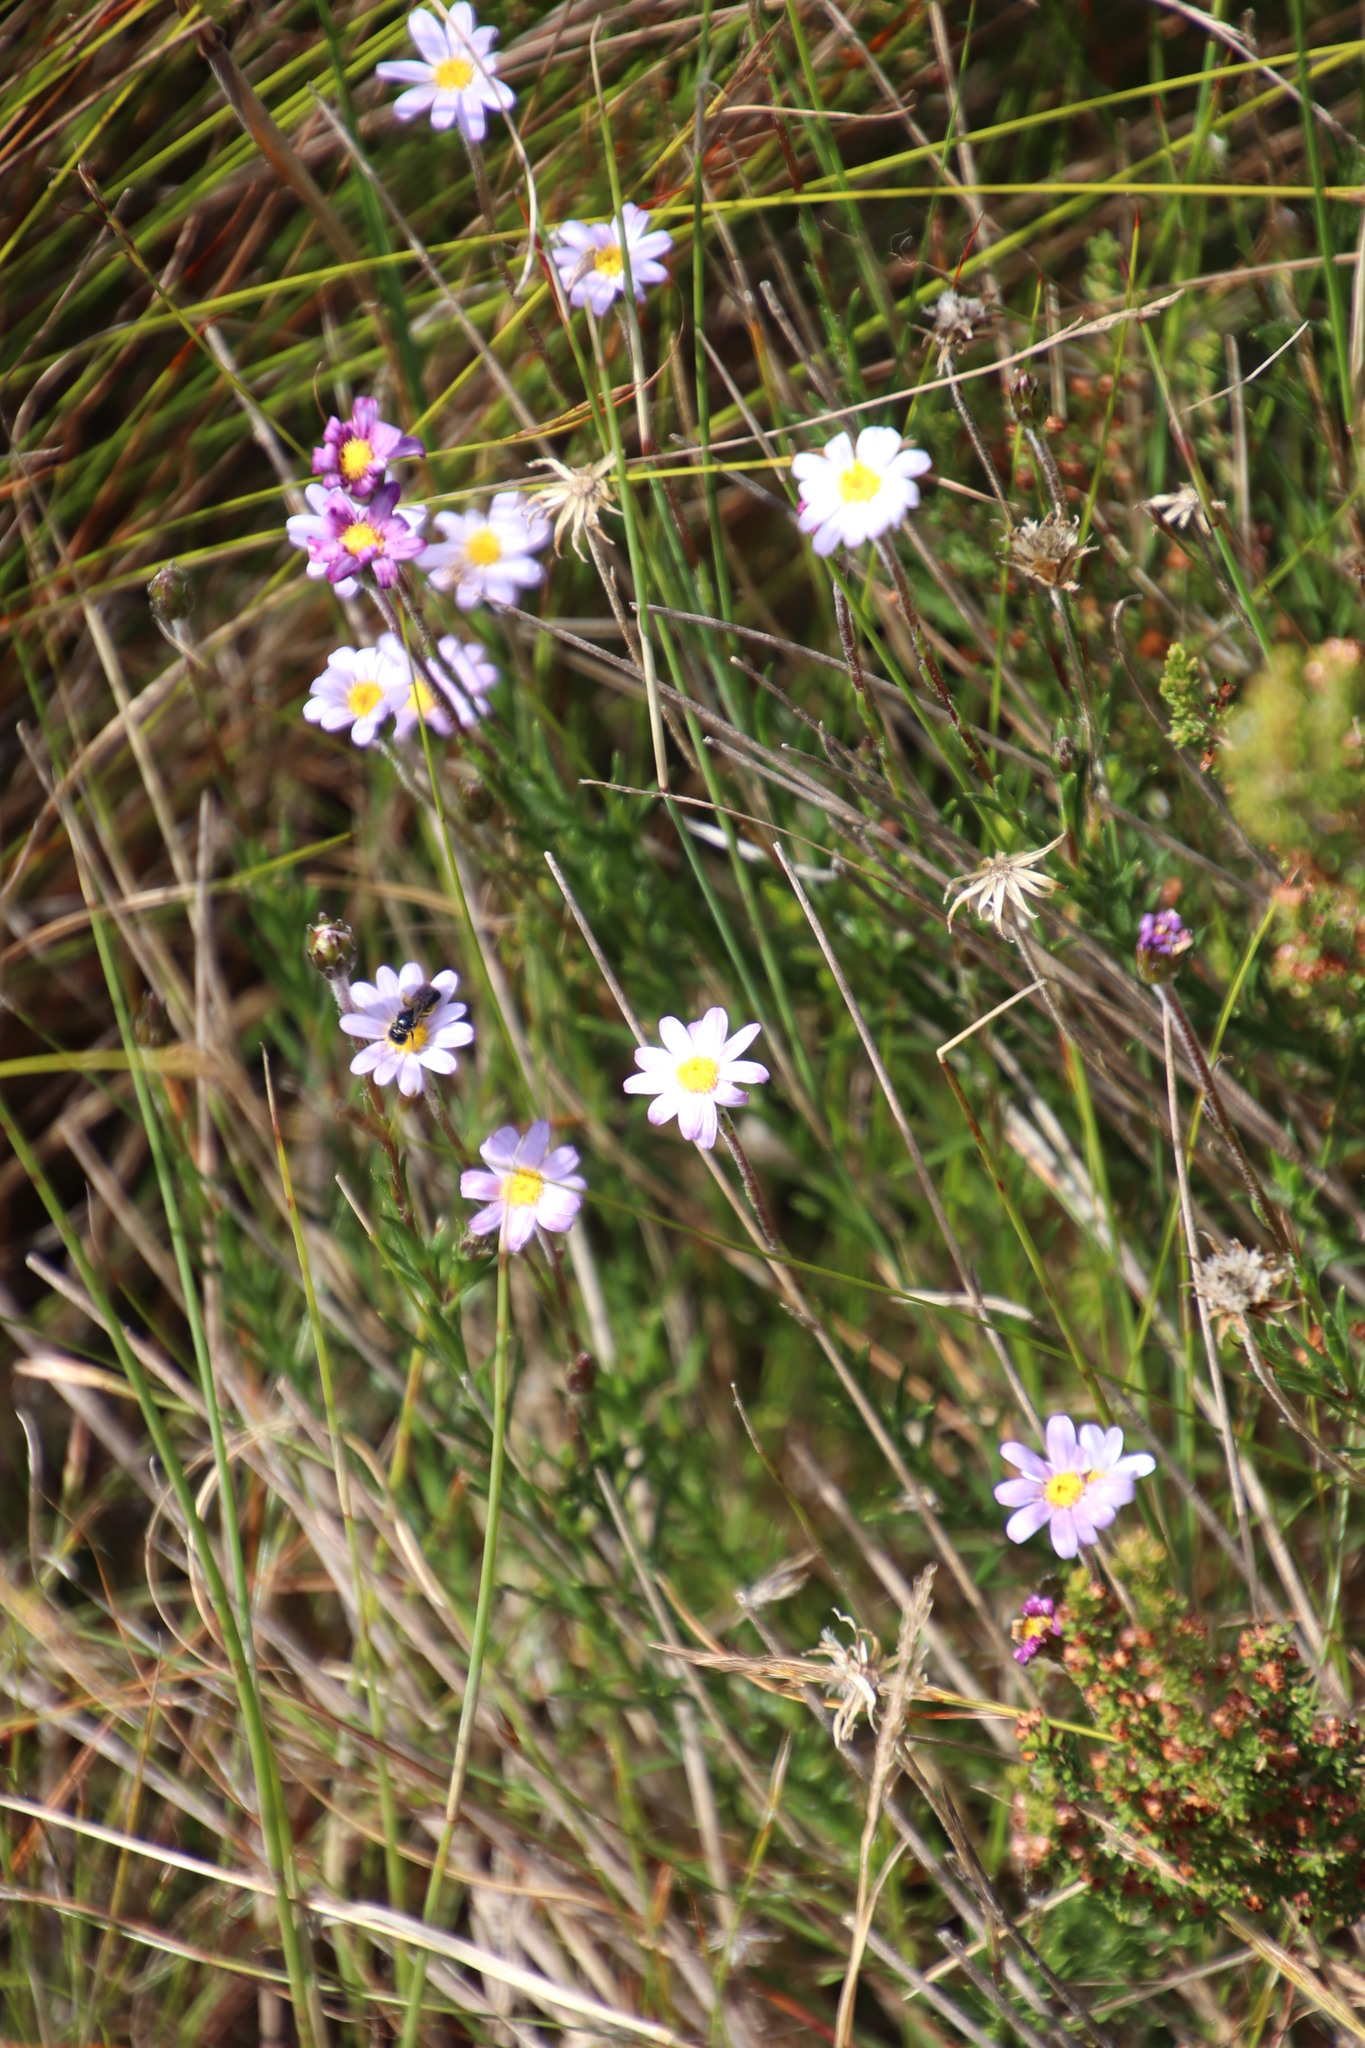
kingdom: Plantae
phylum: Tracheophyta
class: Magnoliopsida
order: Asterales
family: Asteraceae
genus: Zyrphelis
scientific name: Zyrphelis taxifolia
